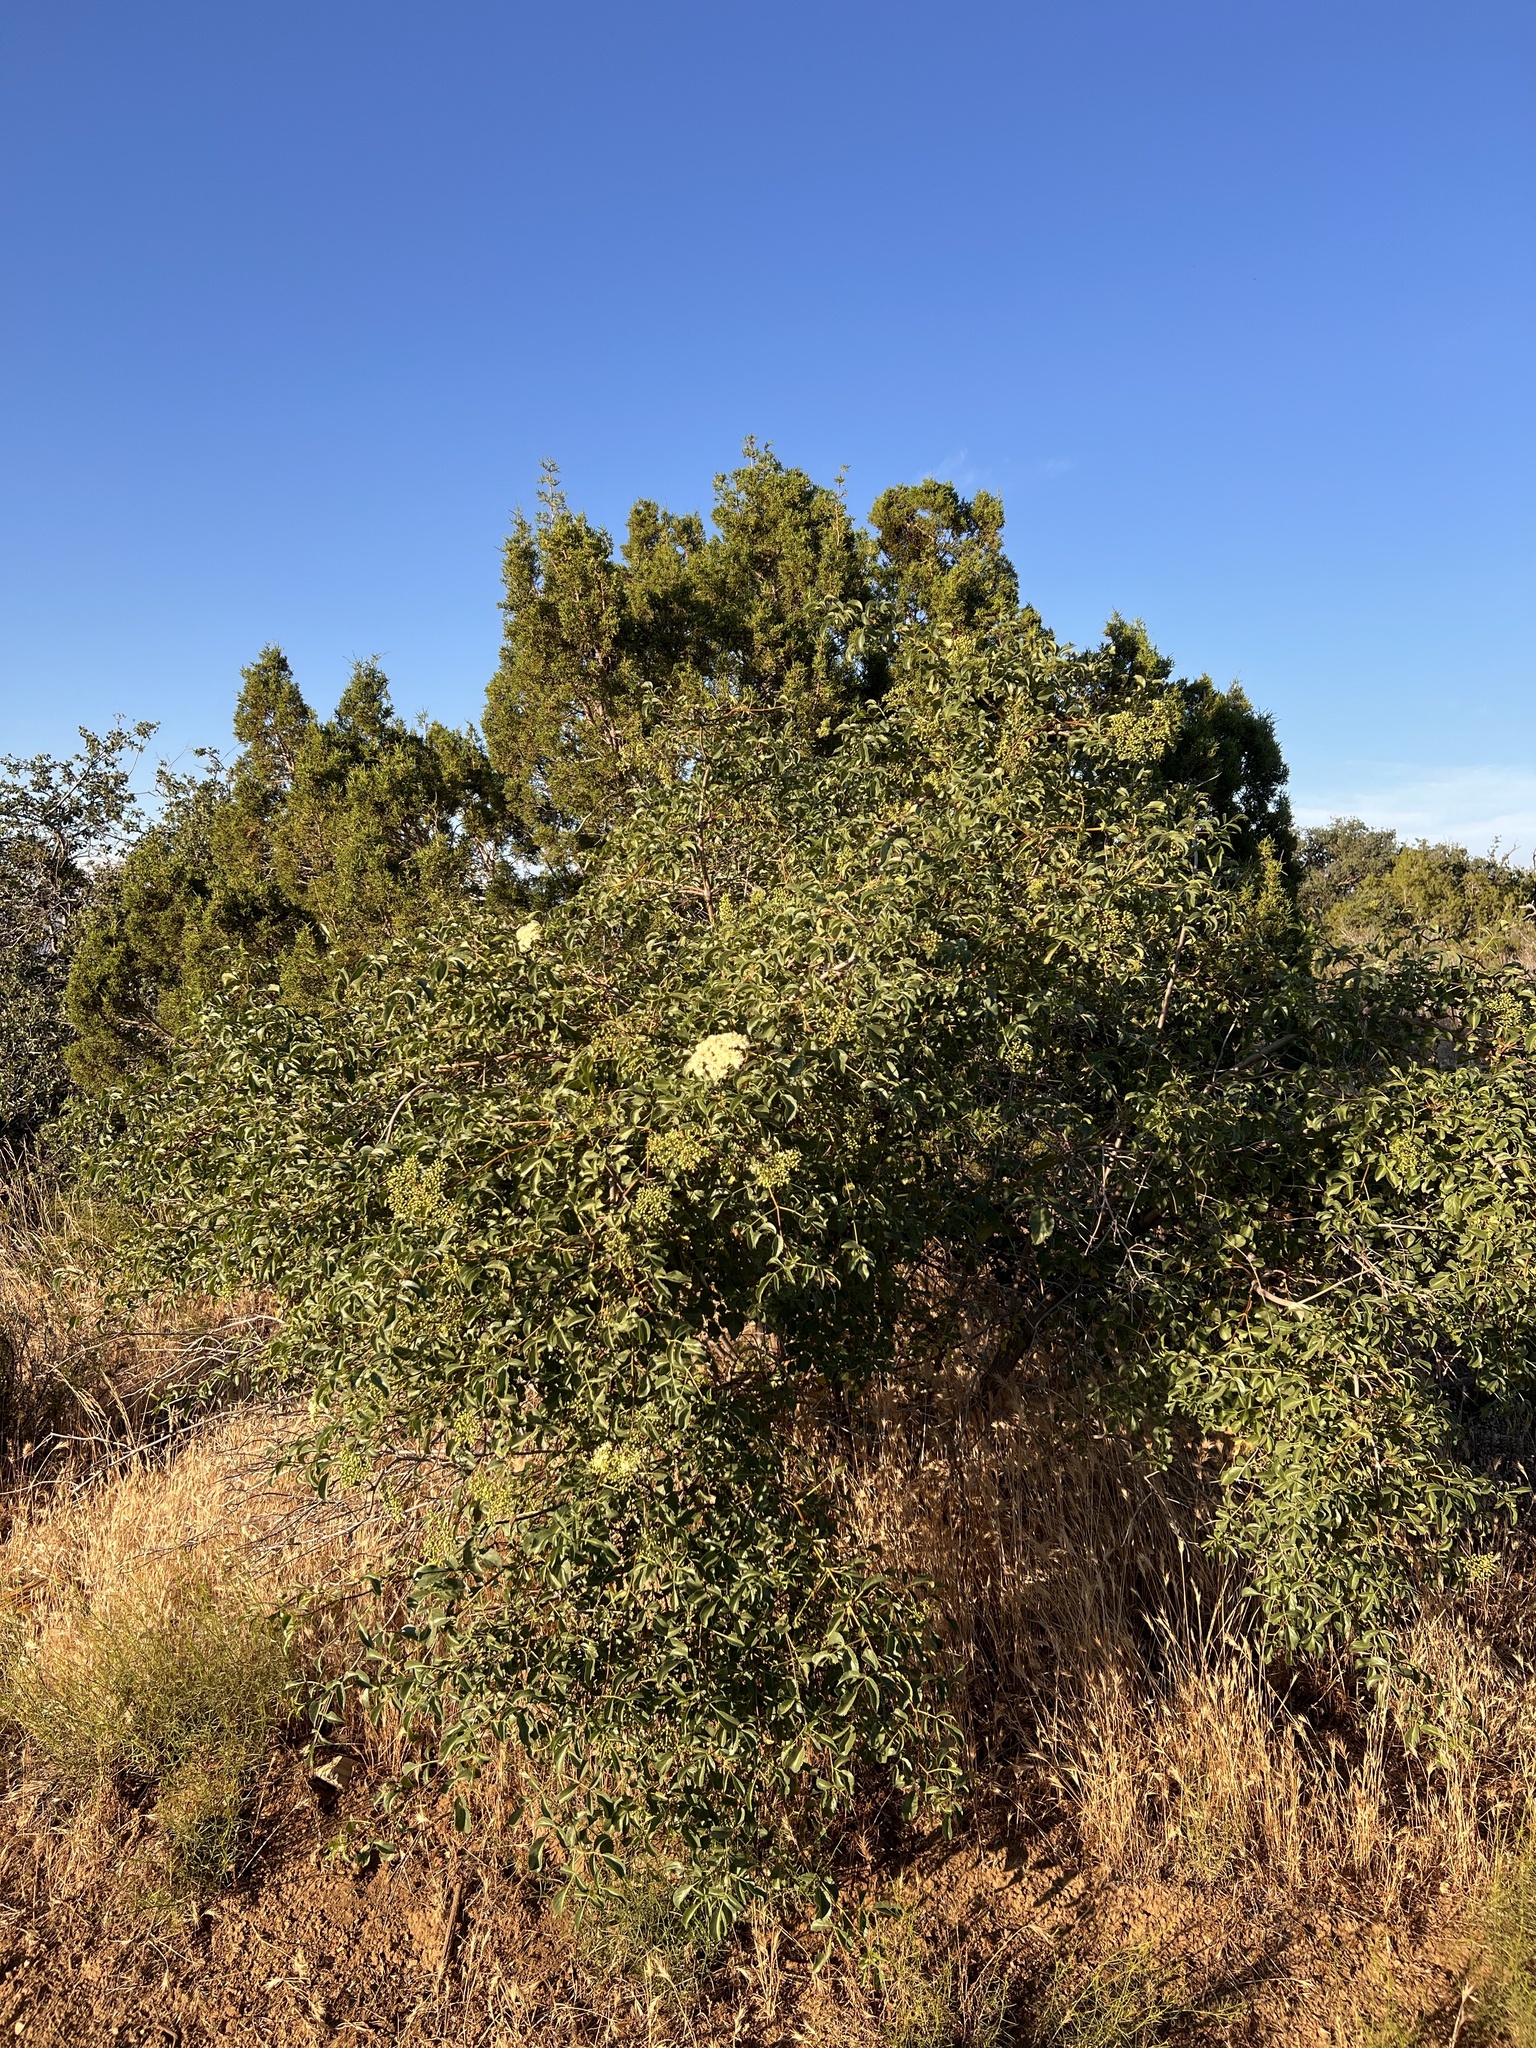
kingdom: Plantae
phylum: Tracheophyta
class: Magnoliopsida
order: Dipsacales
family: Viburnaceae
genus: Sambucus
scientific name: Sambucus cerulea
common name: Blue elder
